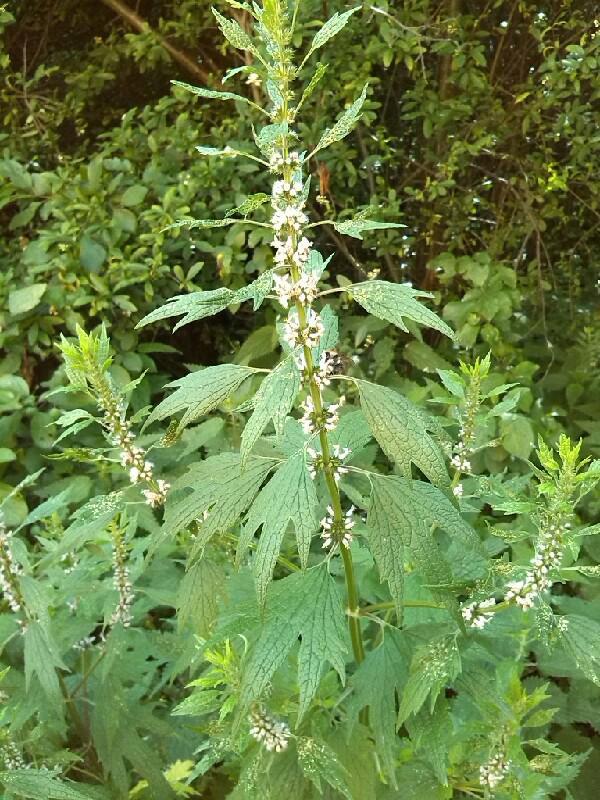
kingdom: Plantae
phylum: Tracheophyta
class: Magnoliopsida
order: Lamiales
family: Lamiaceae
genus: Leonurus
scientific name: Leonurus cardiaca
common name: Motherwort
